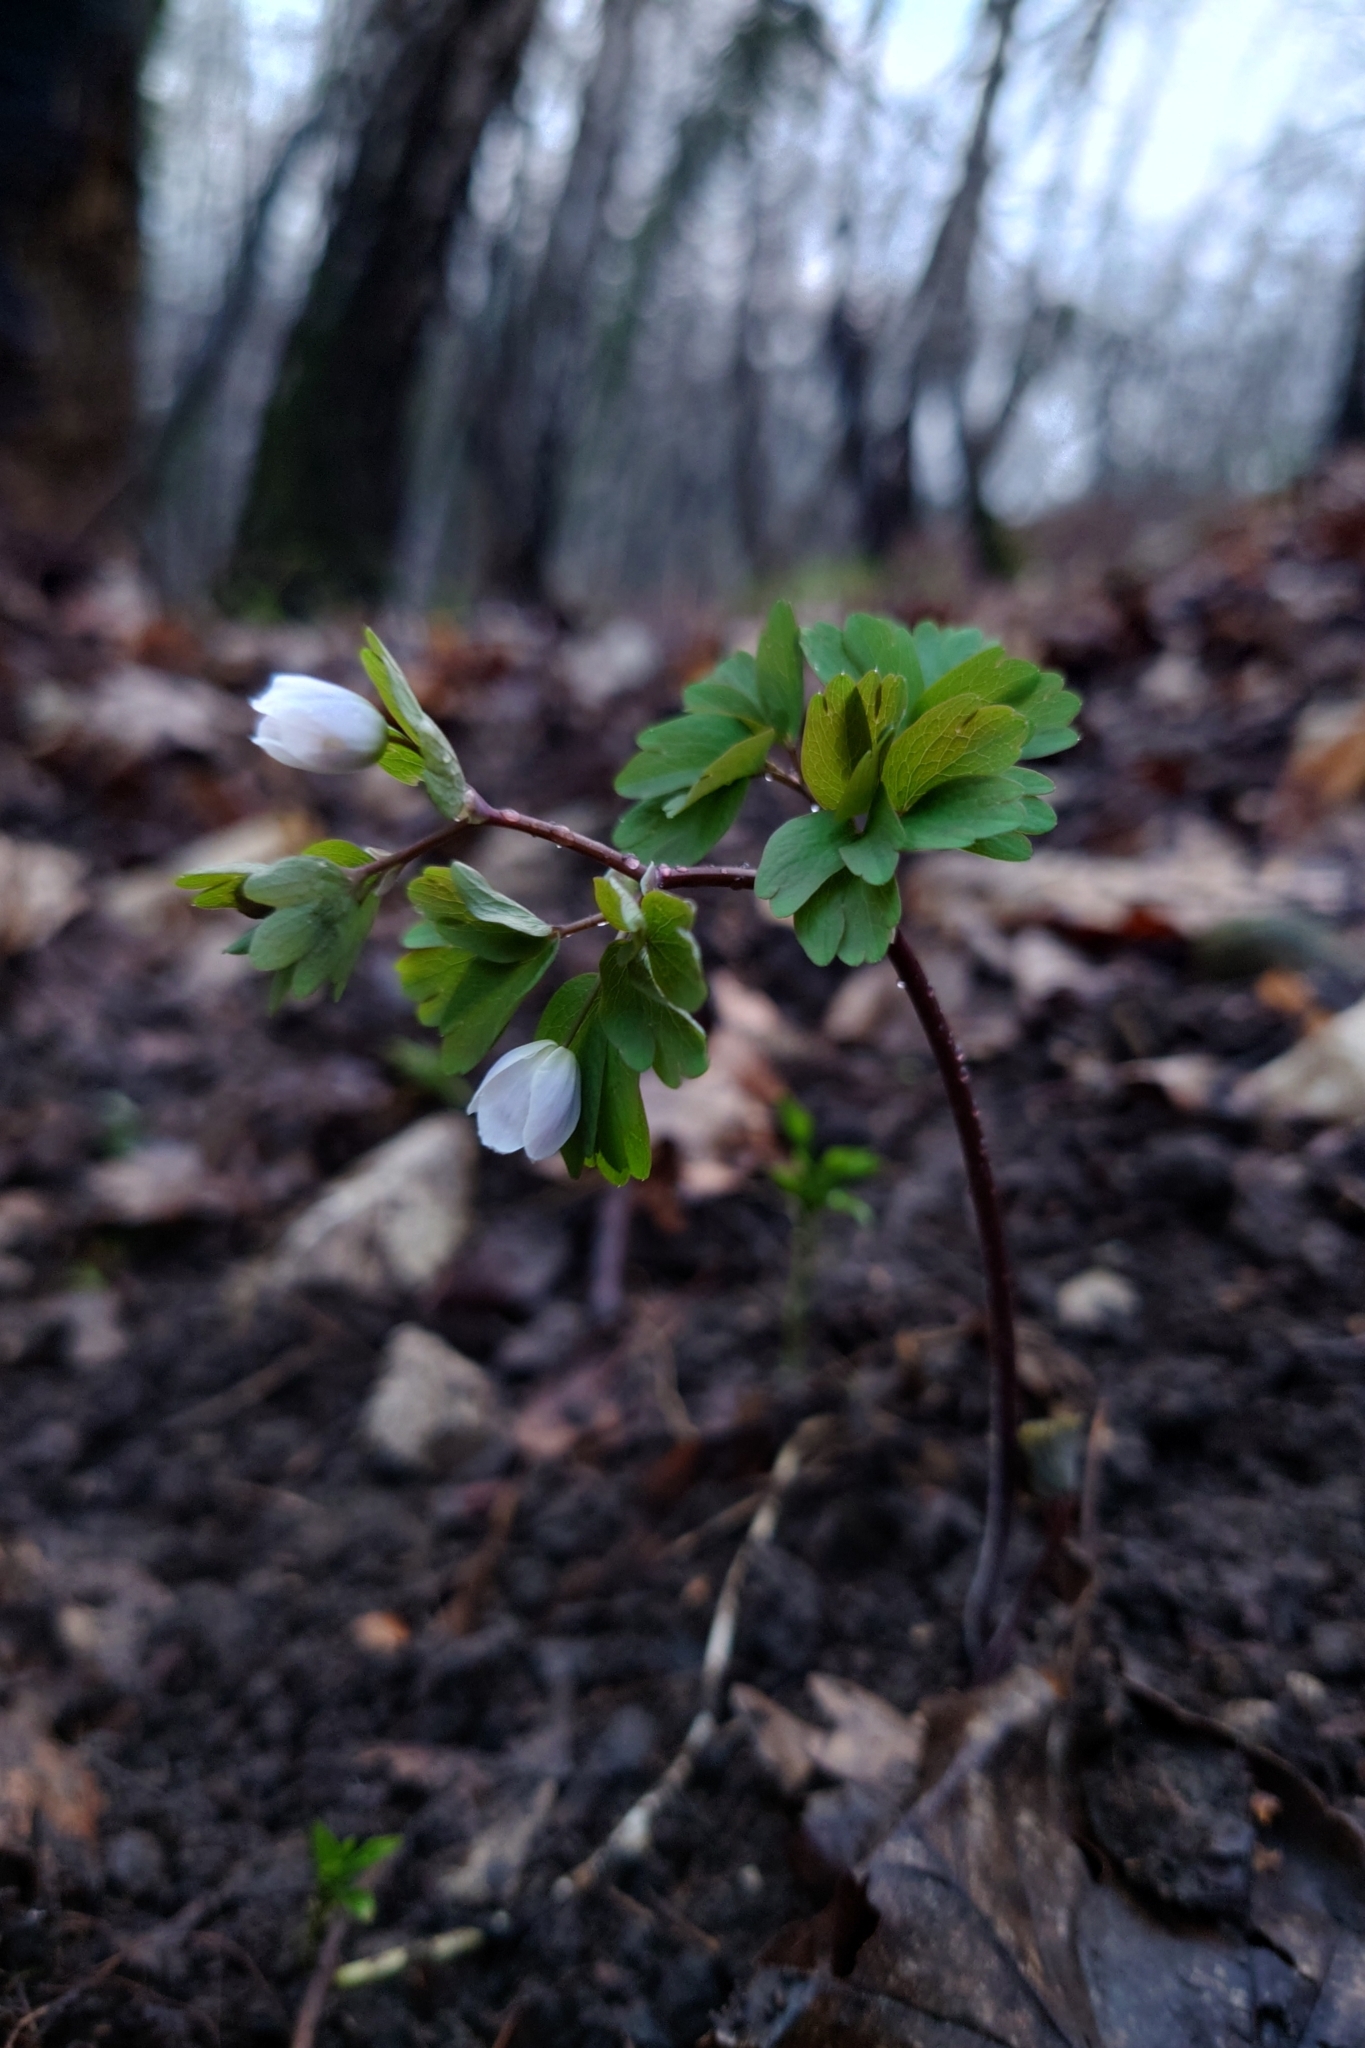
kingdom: Plantae
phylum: Tracheophyta
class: Magnoliopsida
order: Ranunculales
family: Ranunculaceae
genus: Isopyrum
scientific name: Isopyrum thalictroides
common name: Isopyrum
